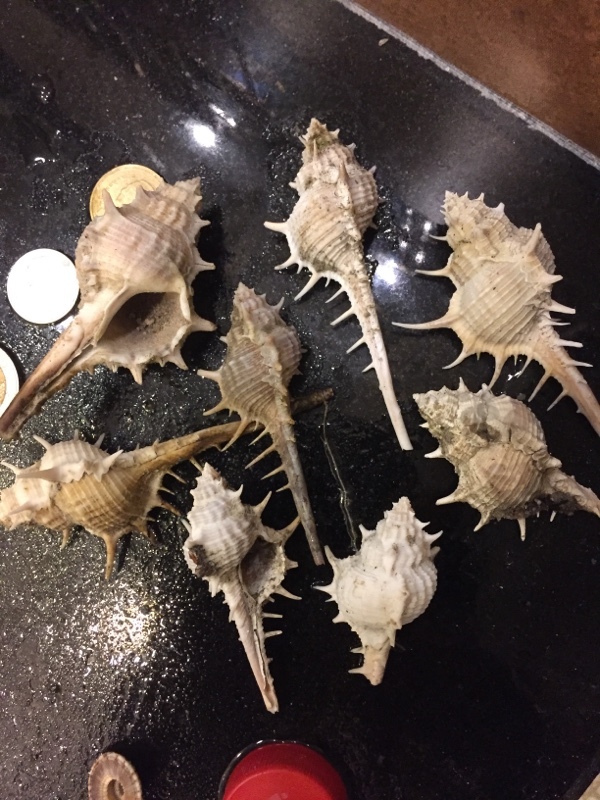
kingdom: Animalia
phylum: Mollusca
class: Gastropoda
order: Neogastropoda
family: Muricidae
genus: Murex
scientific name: Murex trapa
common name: Rare spined murex
